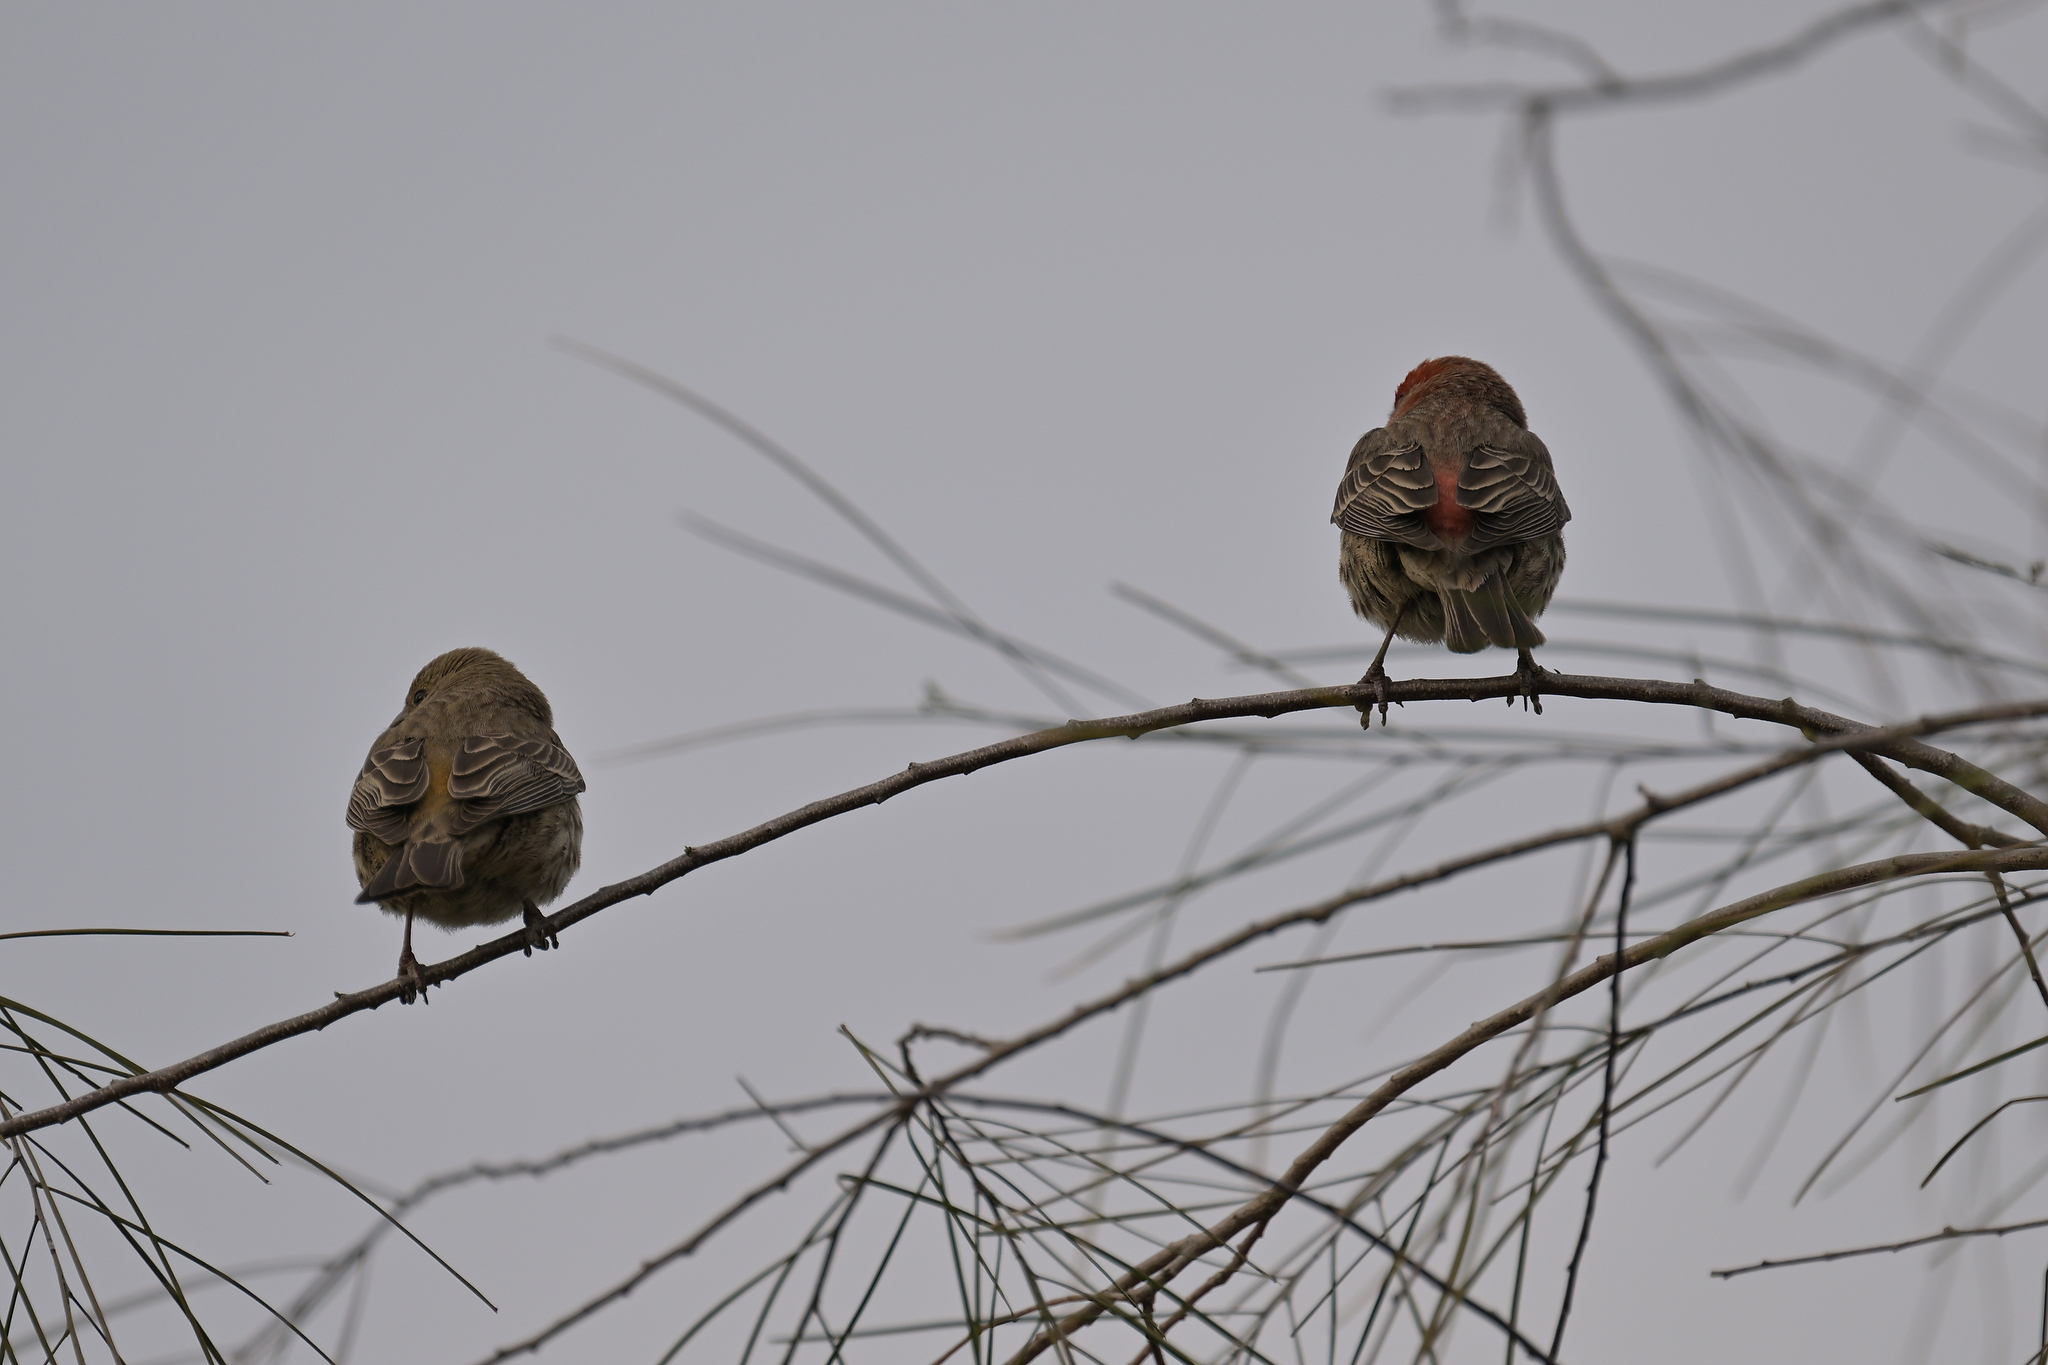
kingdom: Animalia
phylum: Chordata
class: Aves
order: Passeriformes
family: Fringillidae
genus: Haemorhous
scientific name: Haemorhous mexicanus
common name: House finch
